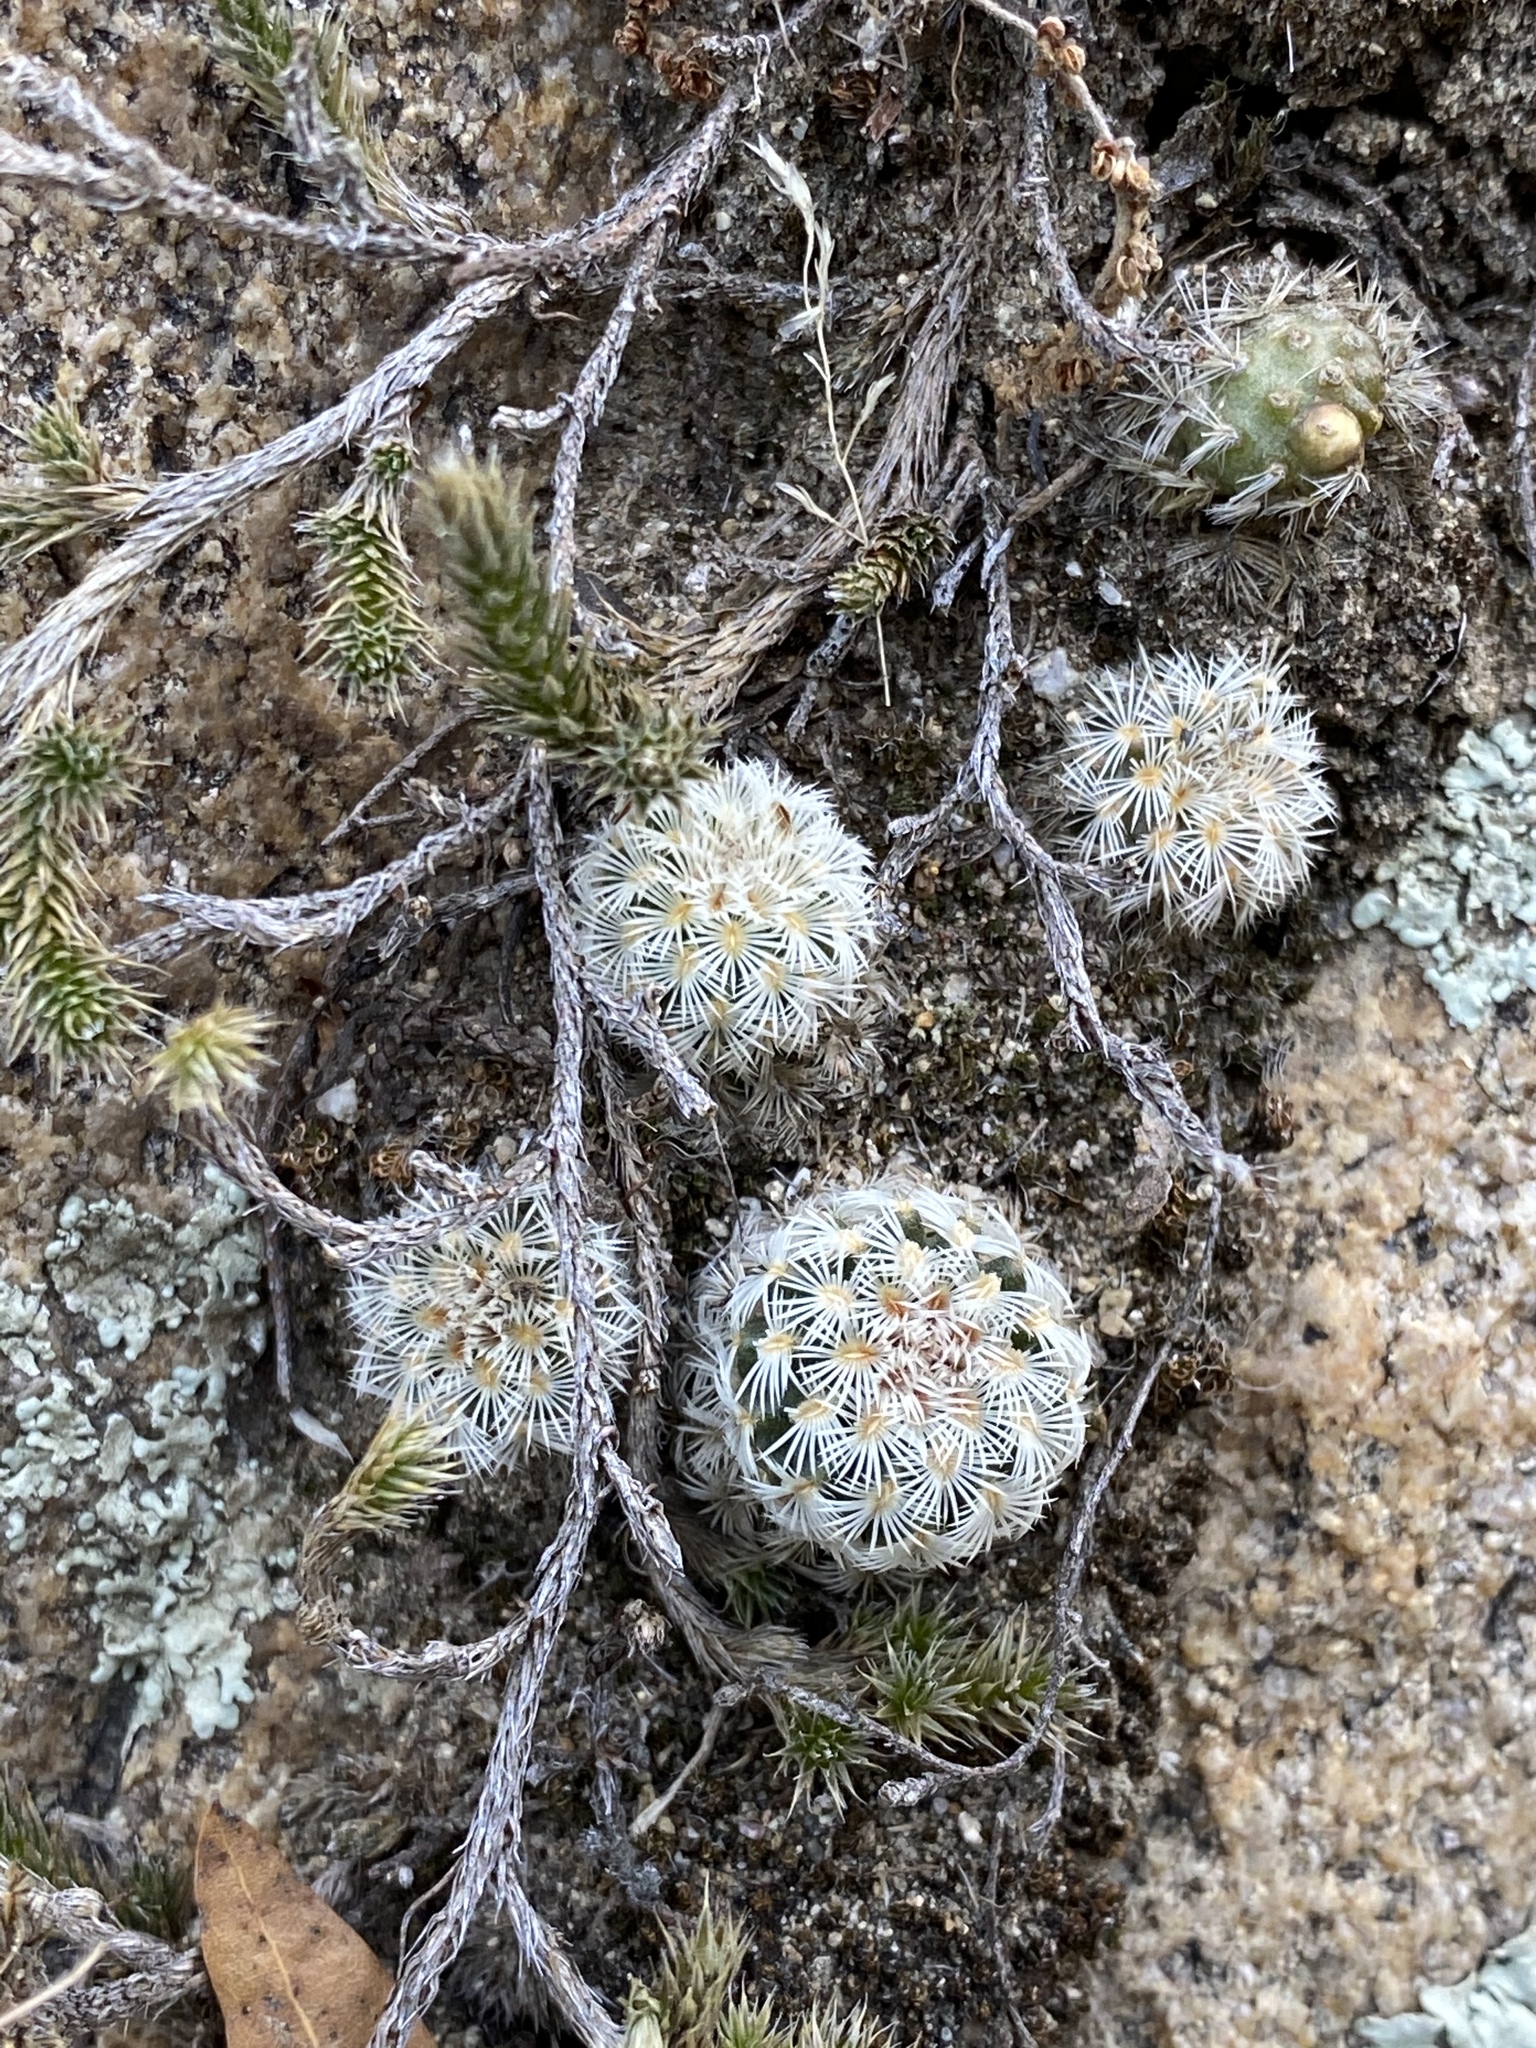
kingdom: Plantae
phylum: Tracheophyta
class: Magnoliopsida
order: Caryophyllales
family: Cactaceae
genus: Echinocereus
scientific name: Echinocereus rigidissimus
